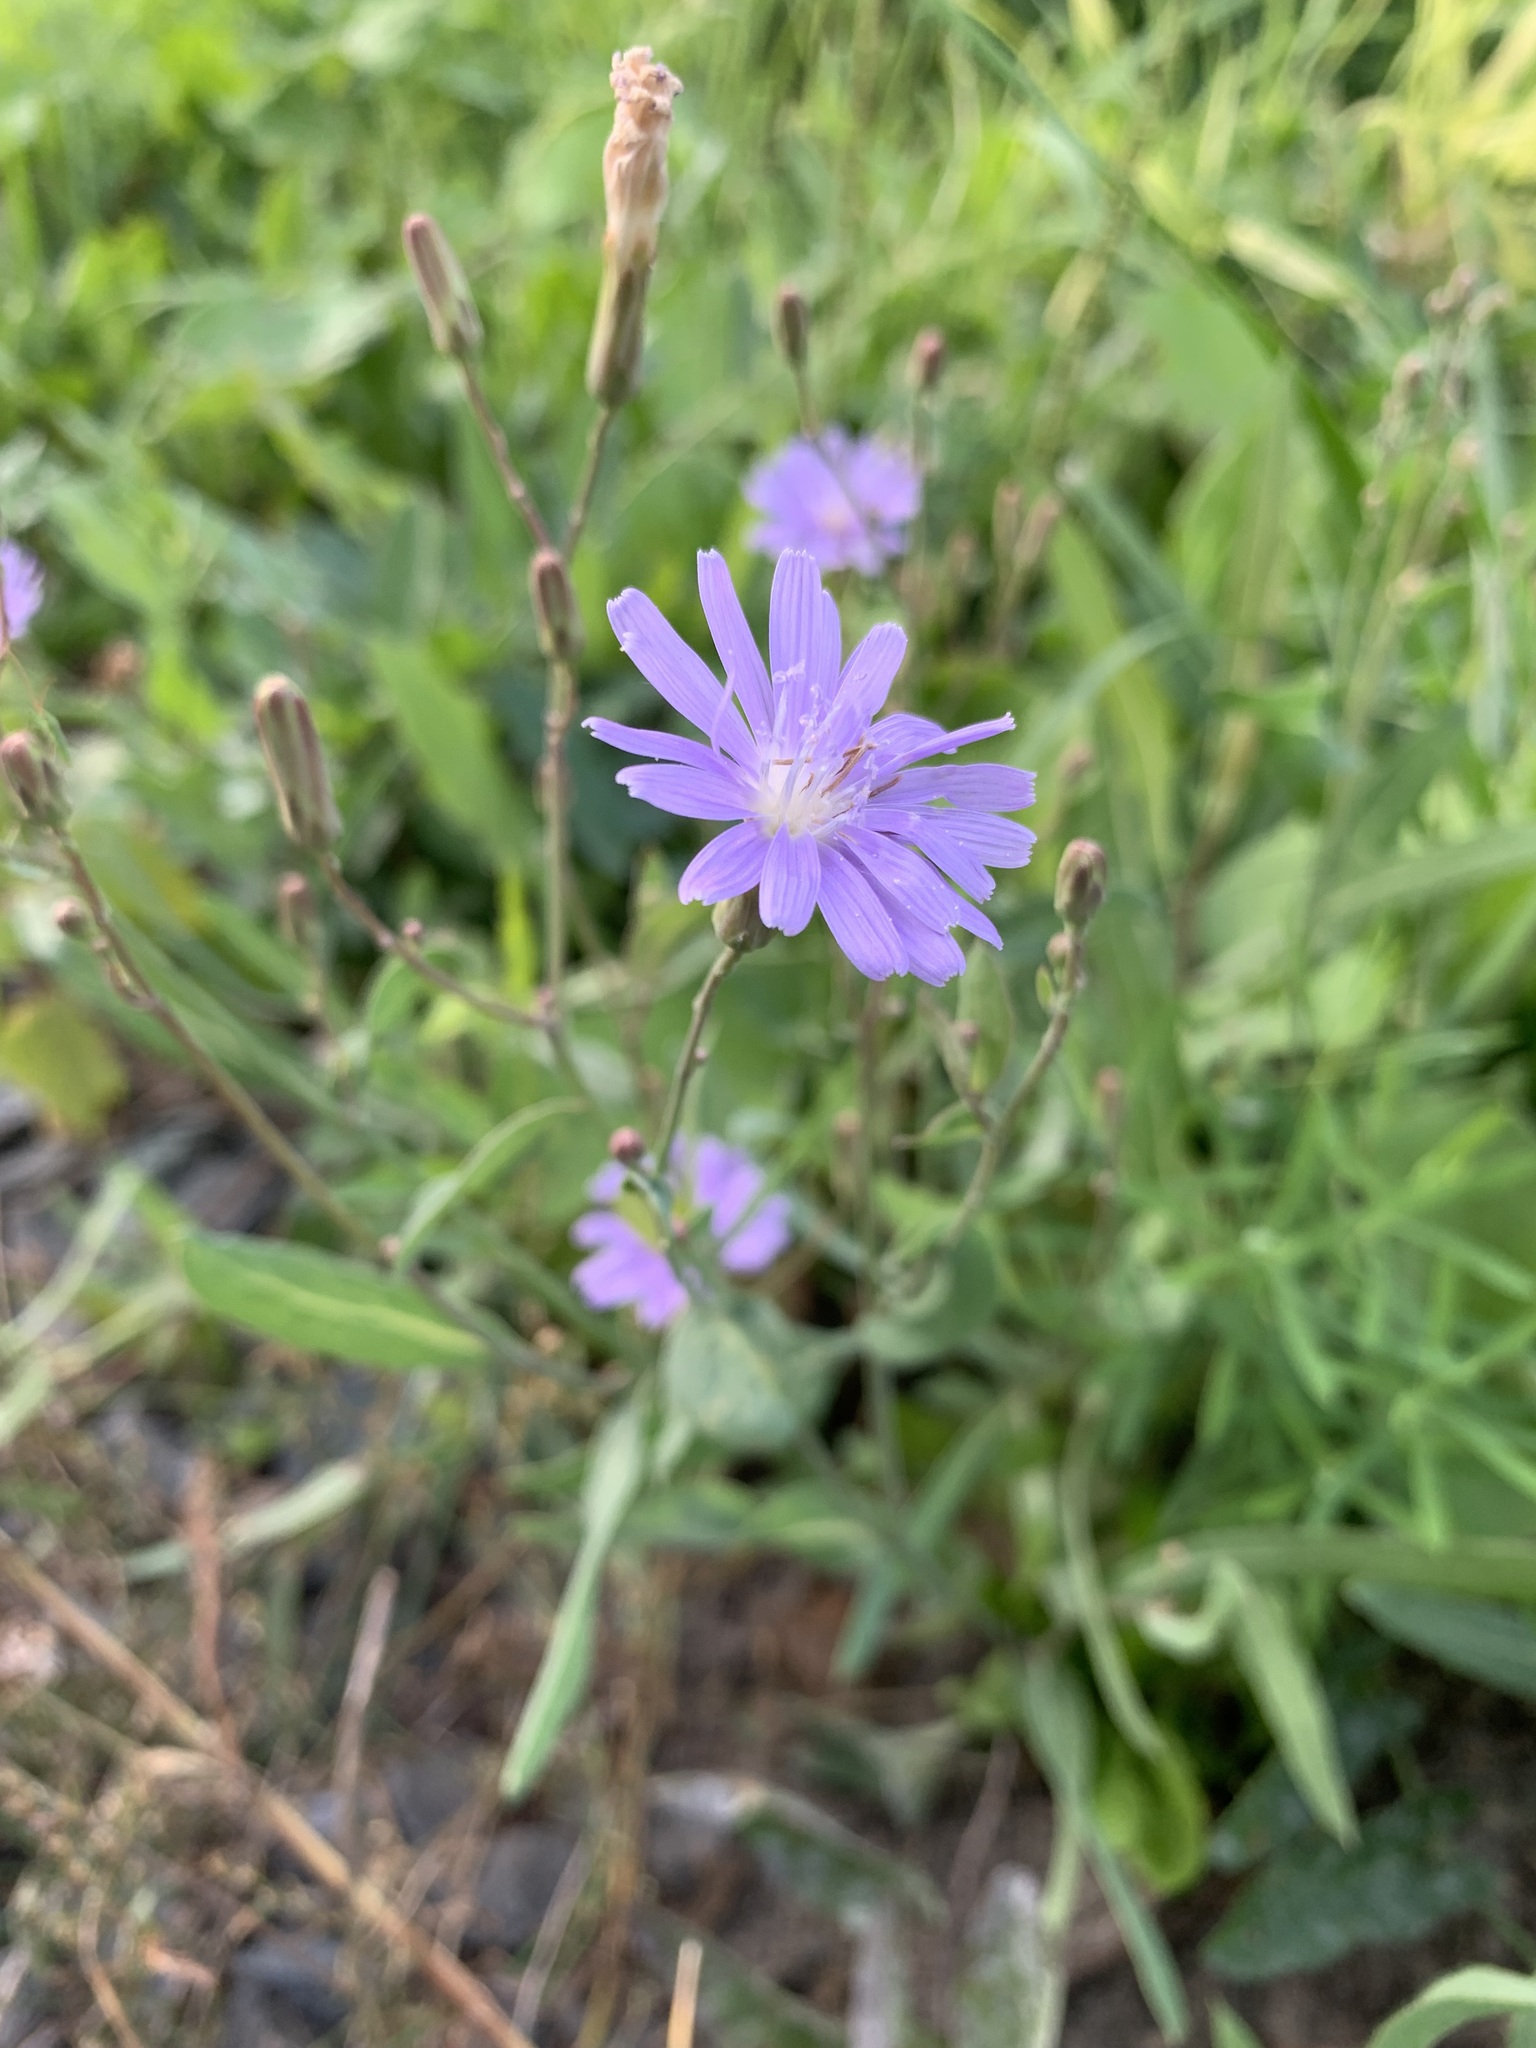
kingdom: Plantae
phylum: Tracheophyta
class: Magnoliopsida
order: Asterales
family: Asteraceae
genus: Lactuca
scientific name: Lactuca tatarica
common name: Blue lettuce
